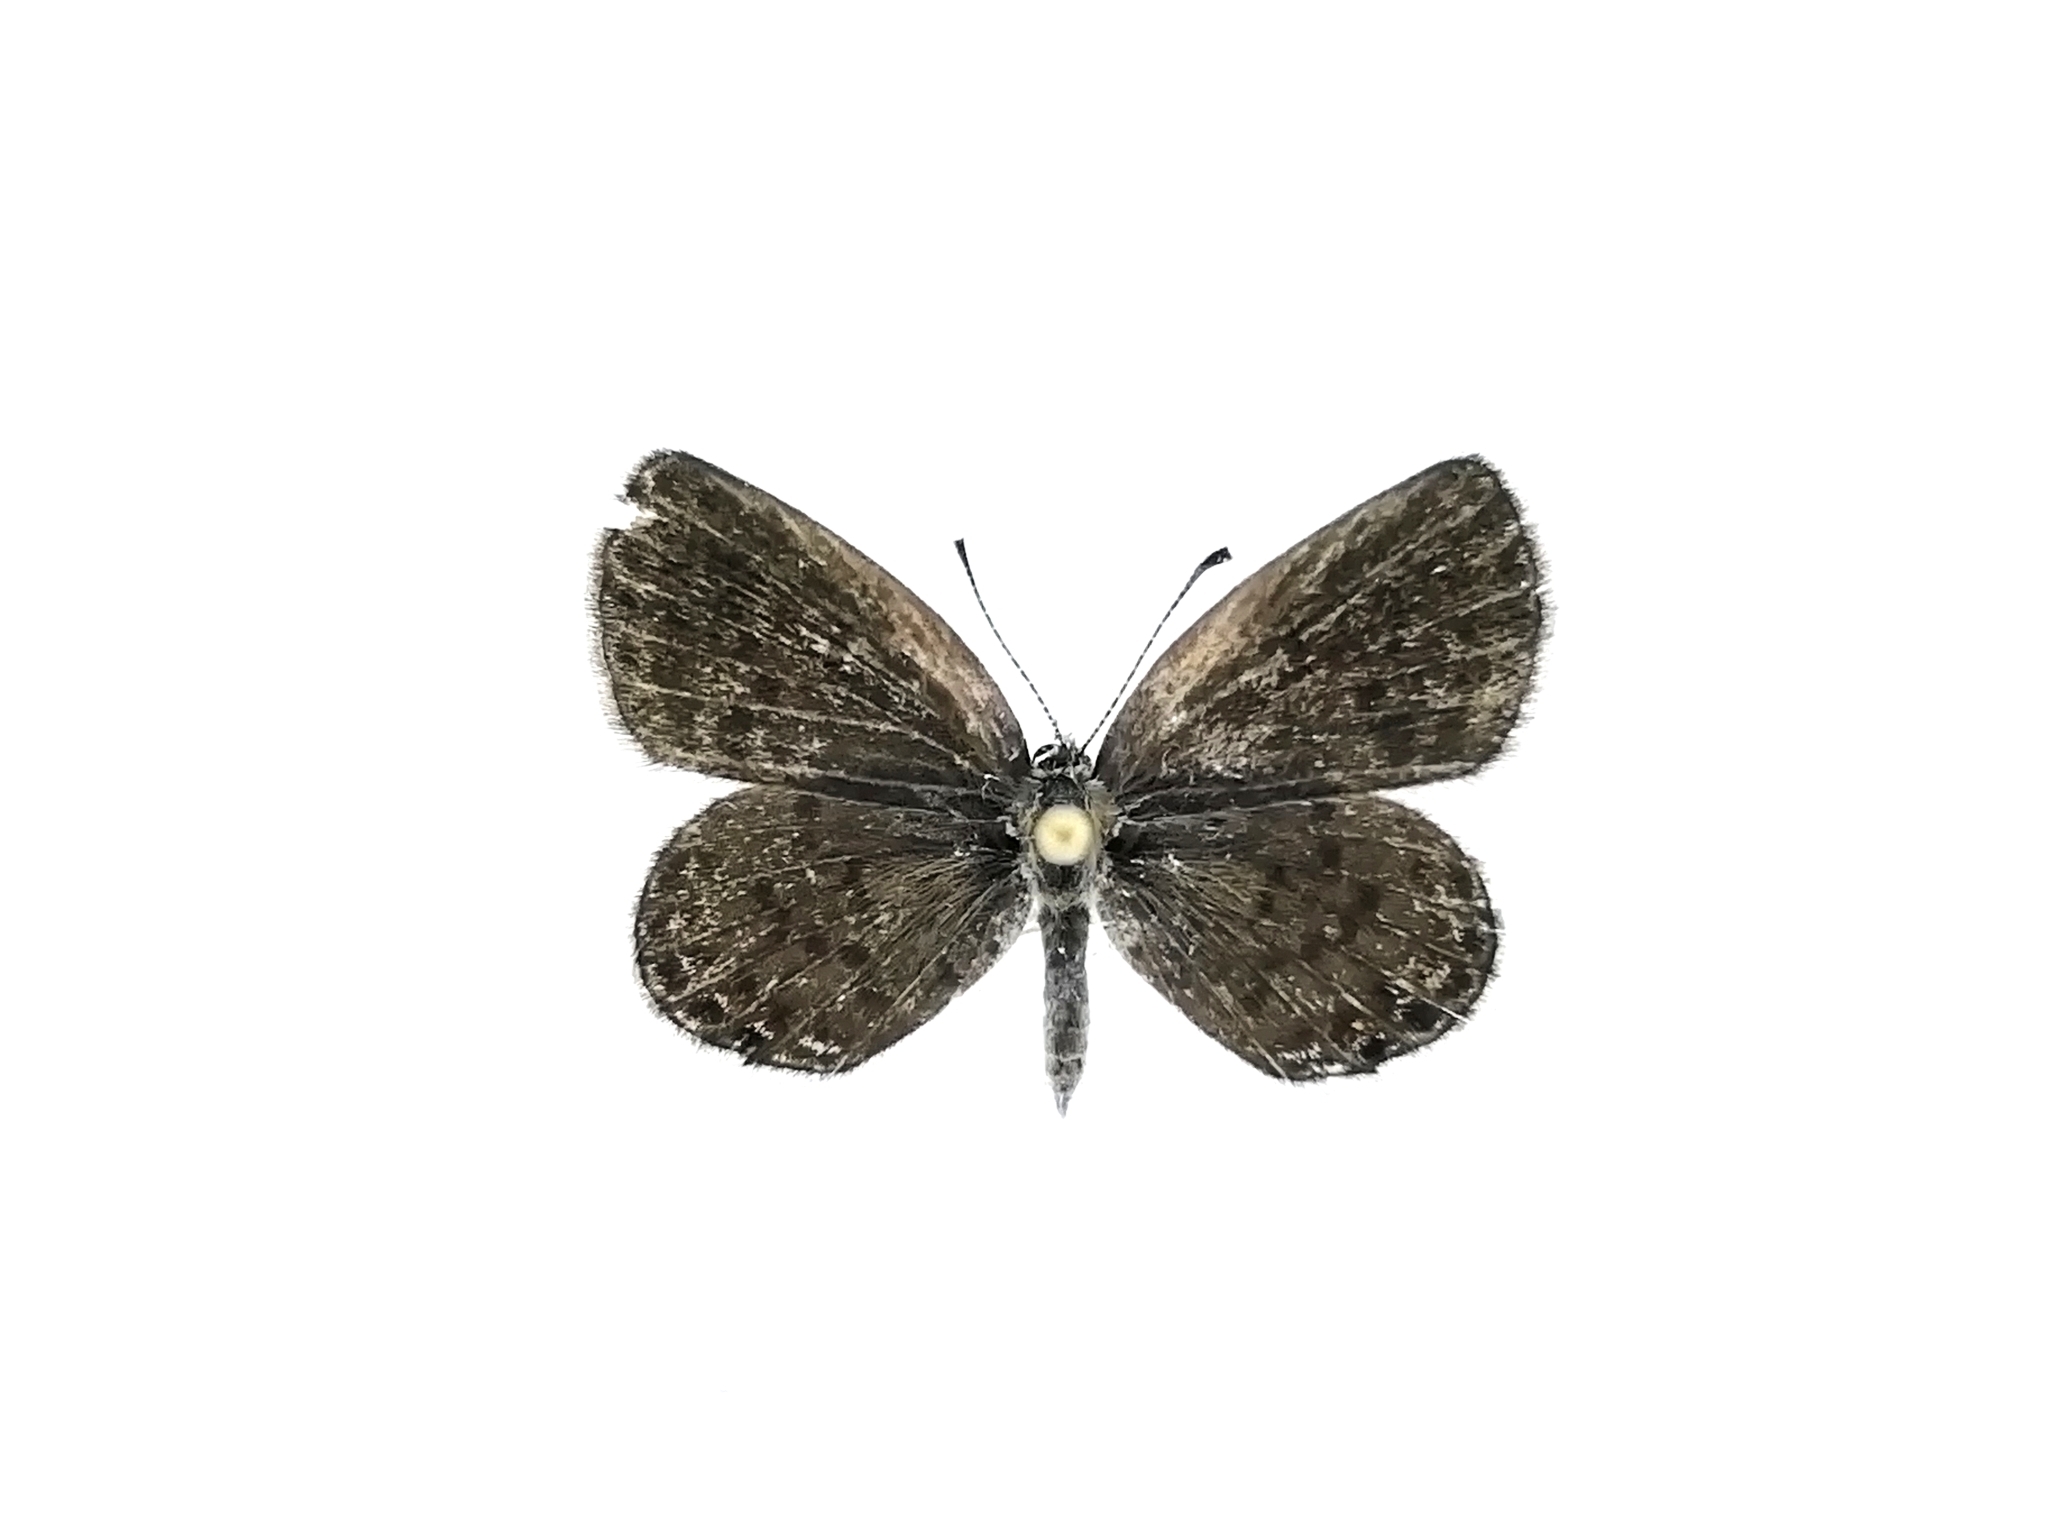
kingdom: Animalia
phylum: Arthropoda
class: Insecta
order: Lepidoptera
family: Lycaenidae
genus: Tongeia
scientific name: Tongeia fischeri
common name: Fischer's blue
